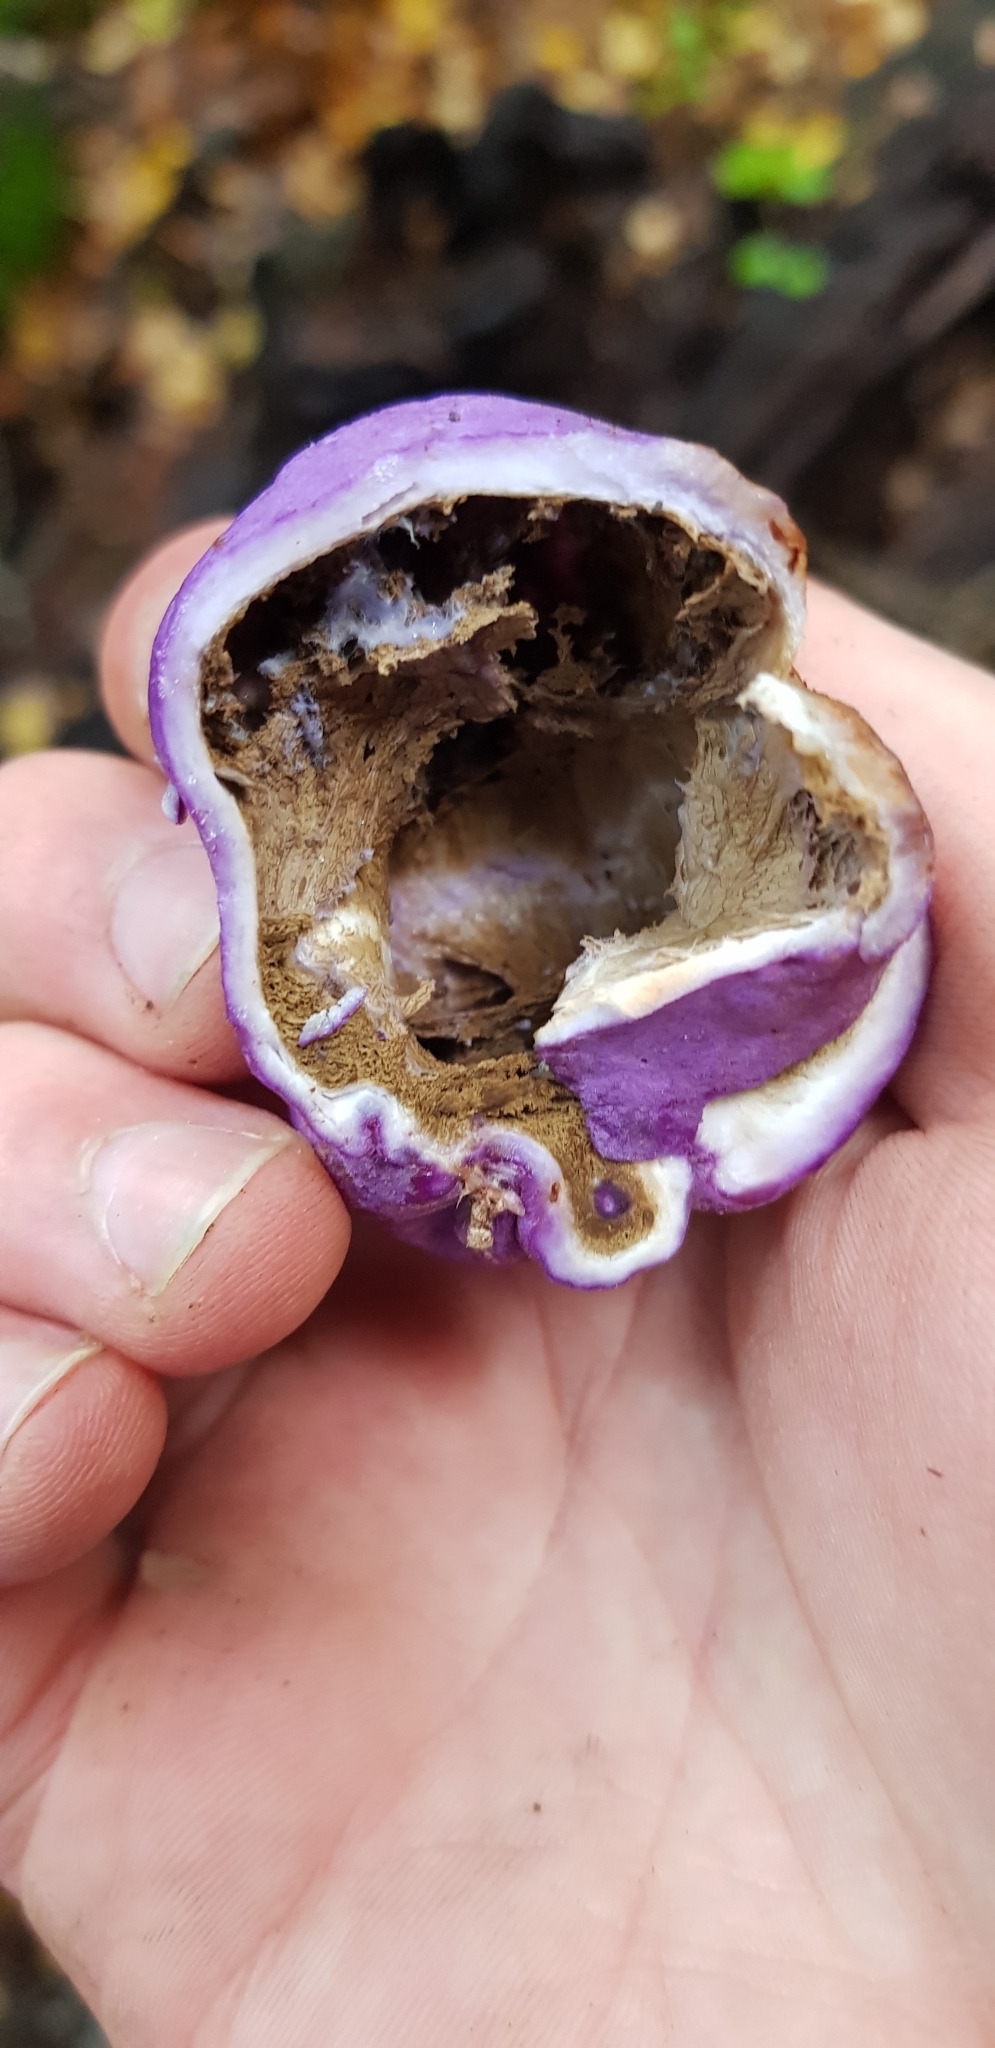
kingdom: Fungi
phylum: Basidiomycota
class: Agaricomycetes
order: Hysterangiales
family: Gallaceaceae
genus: Gallacea
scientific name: Gallacea scleroderma
